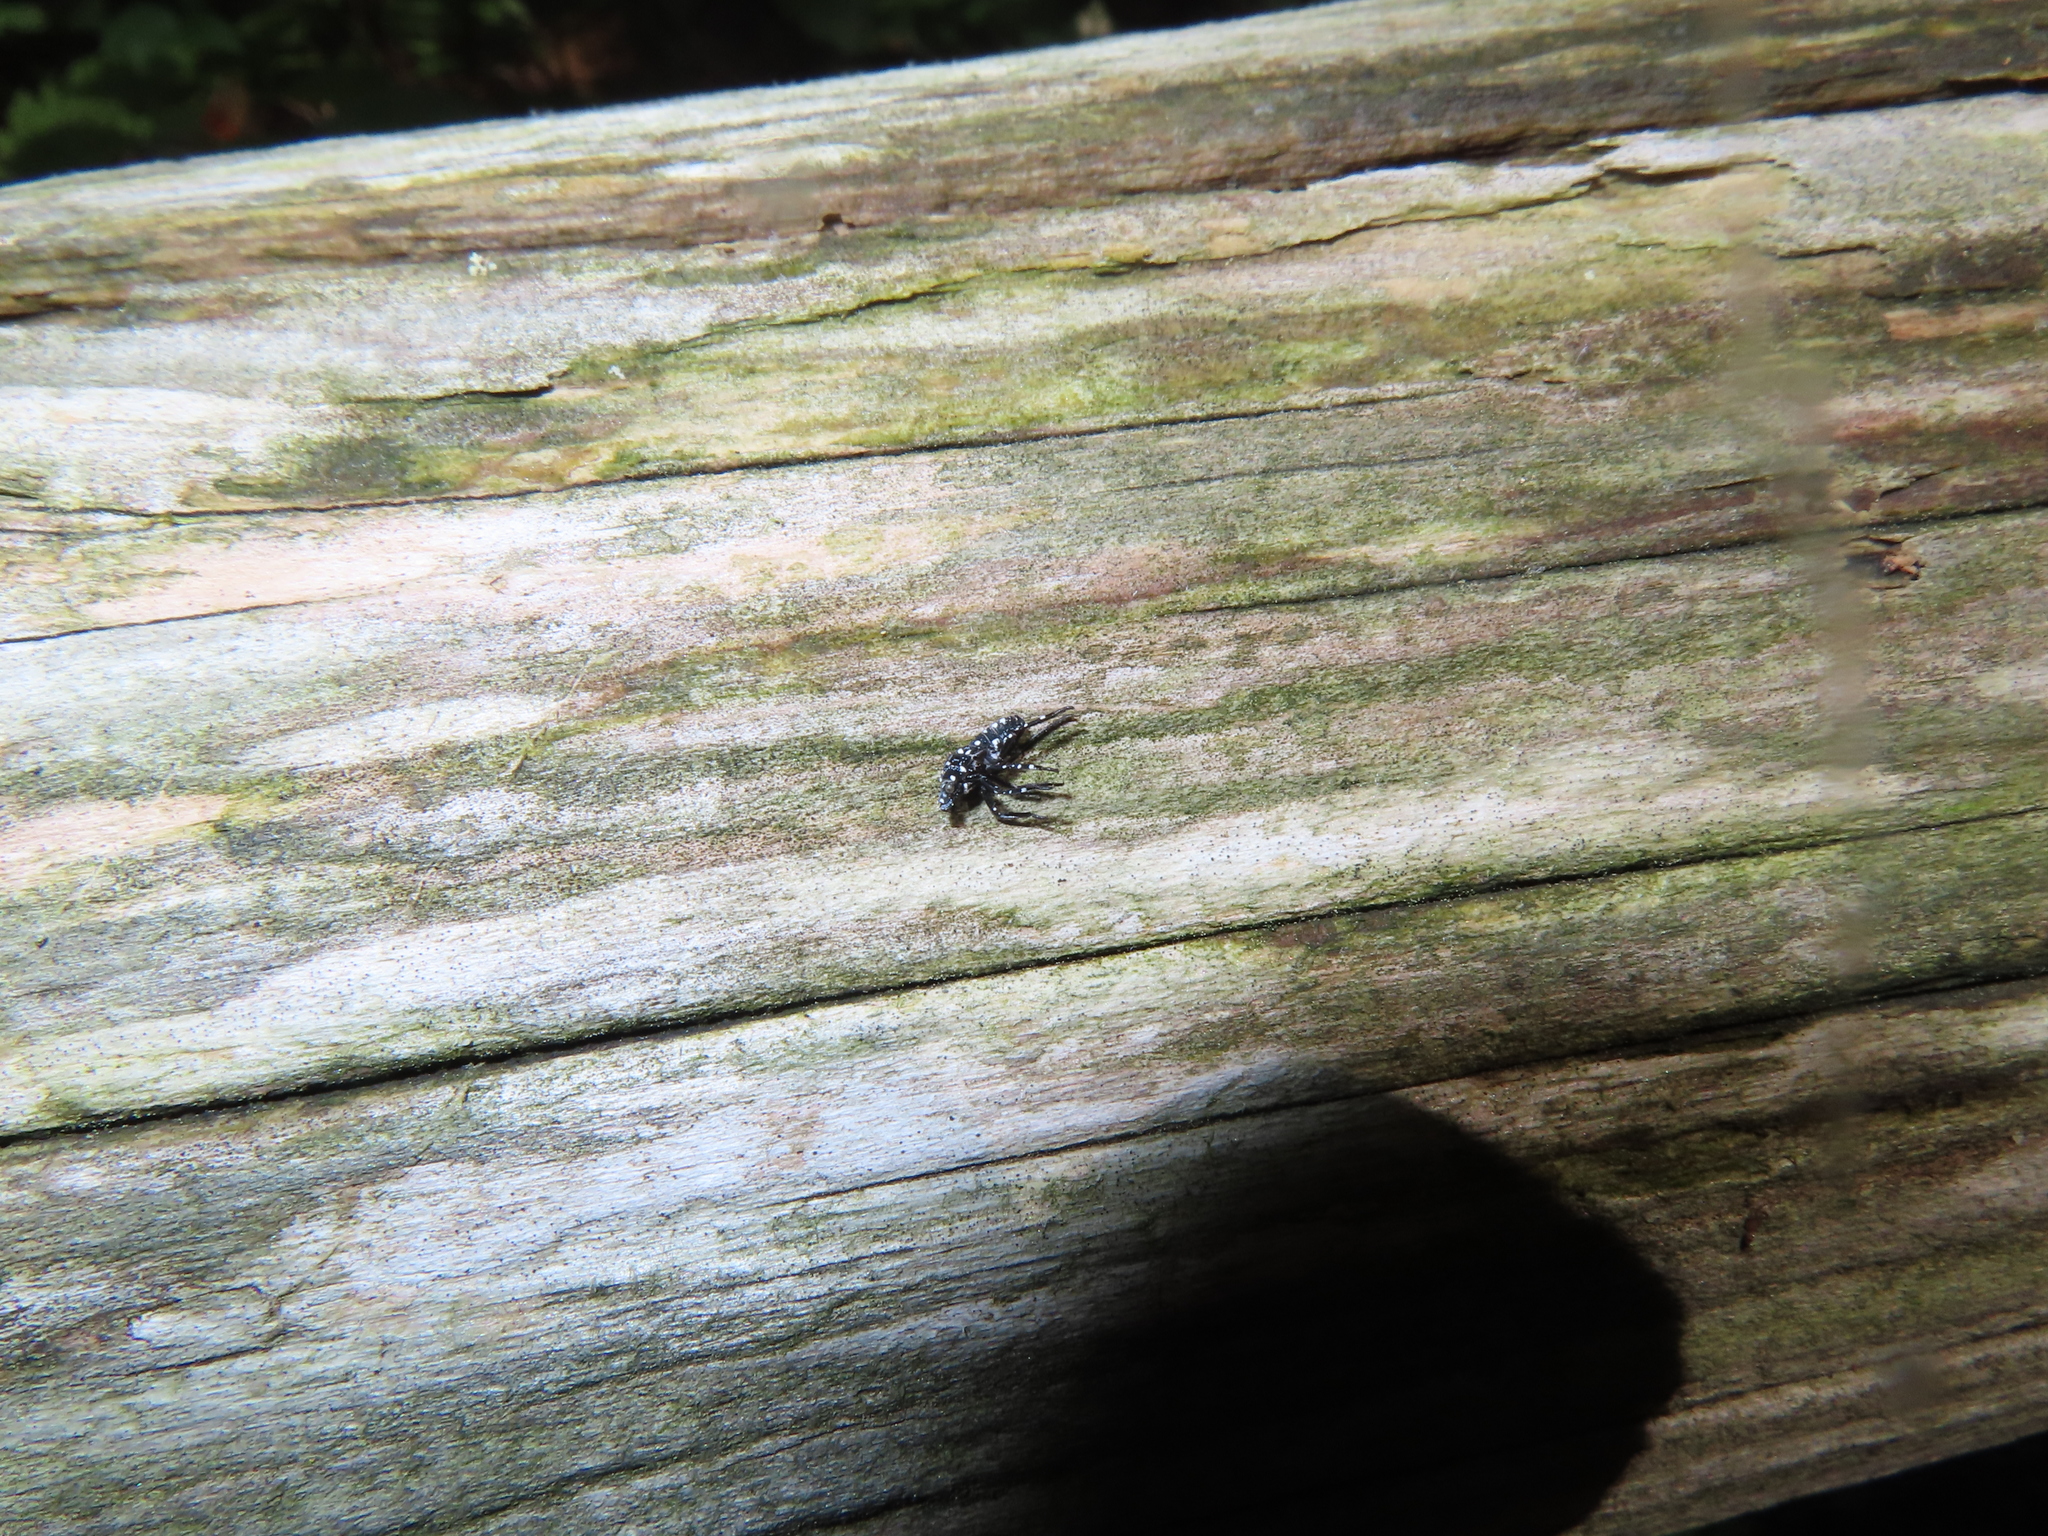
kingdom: Animalia
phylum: Arthropoda
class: Insecta
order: Hemiptera
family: Fulgoridae
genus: Lycorma
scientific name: Lycorma delicatula
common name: Spotted lanternfly
